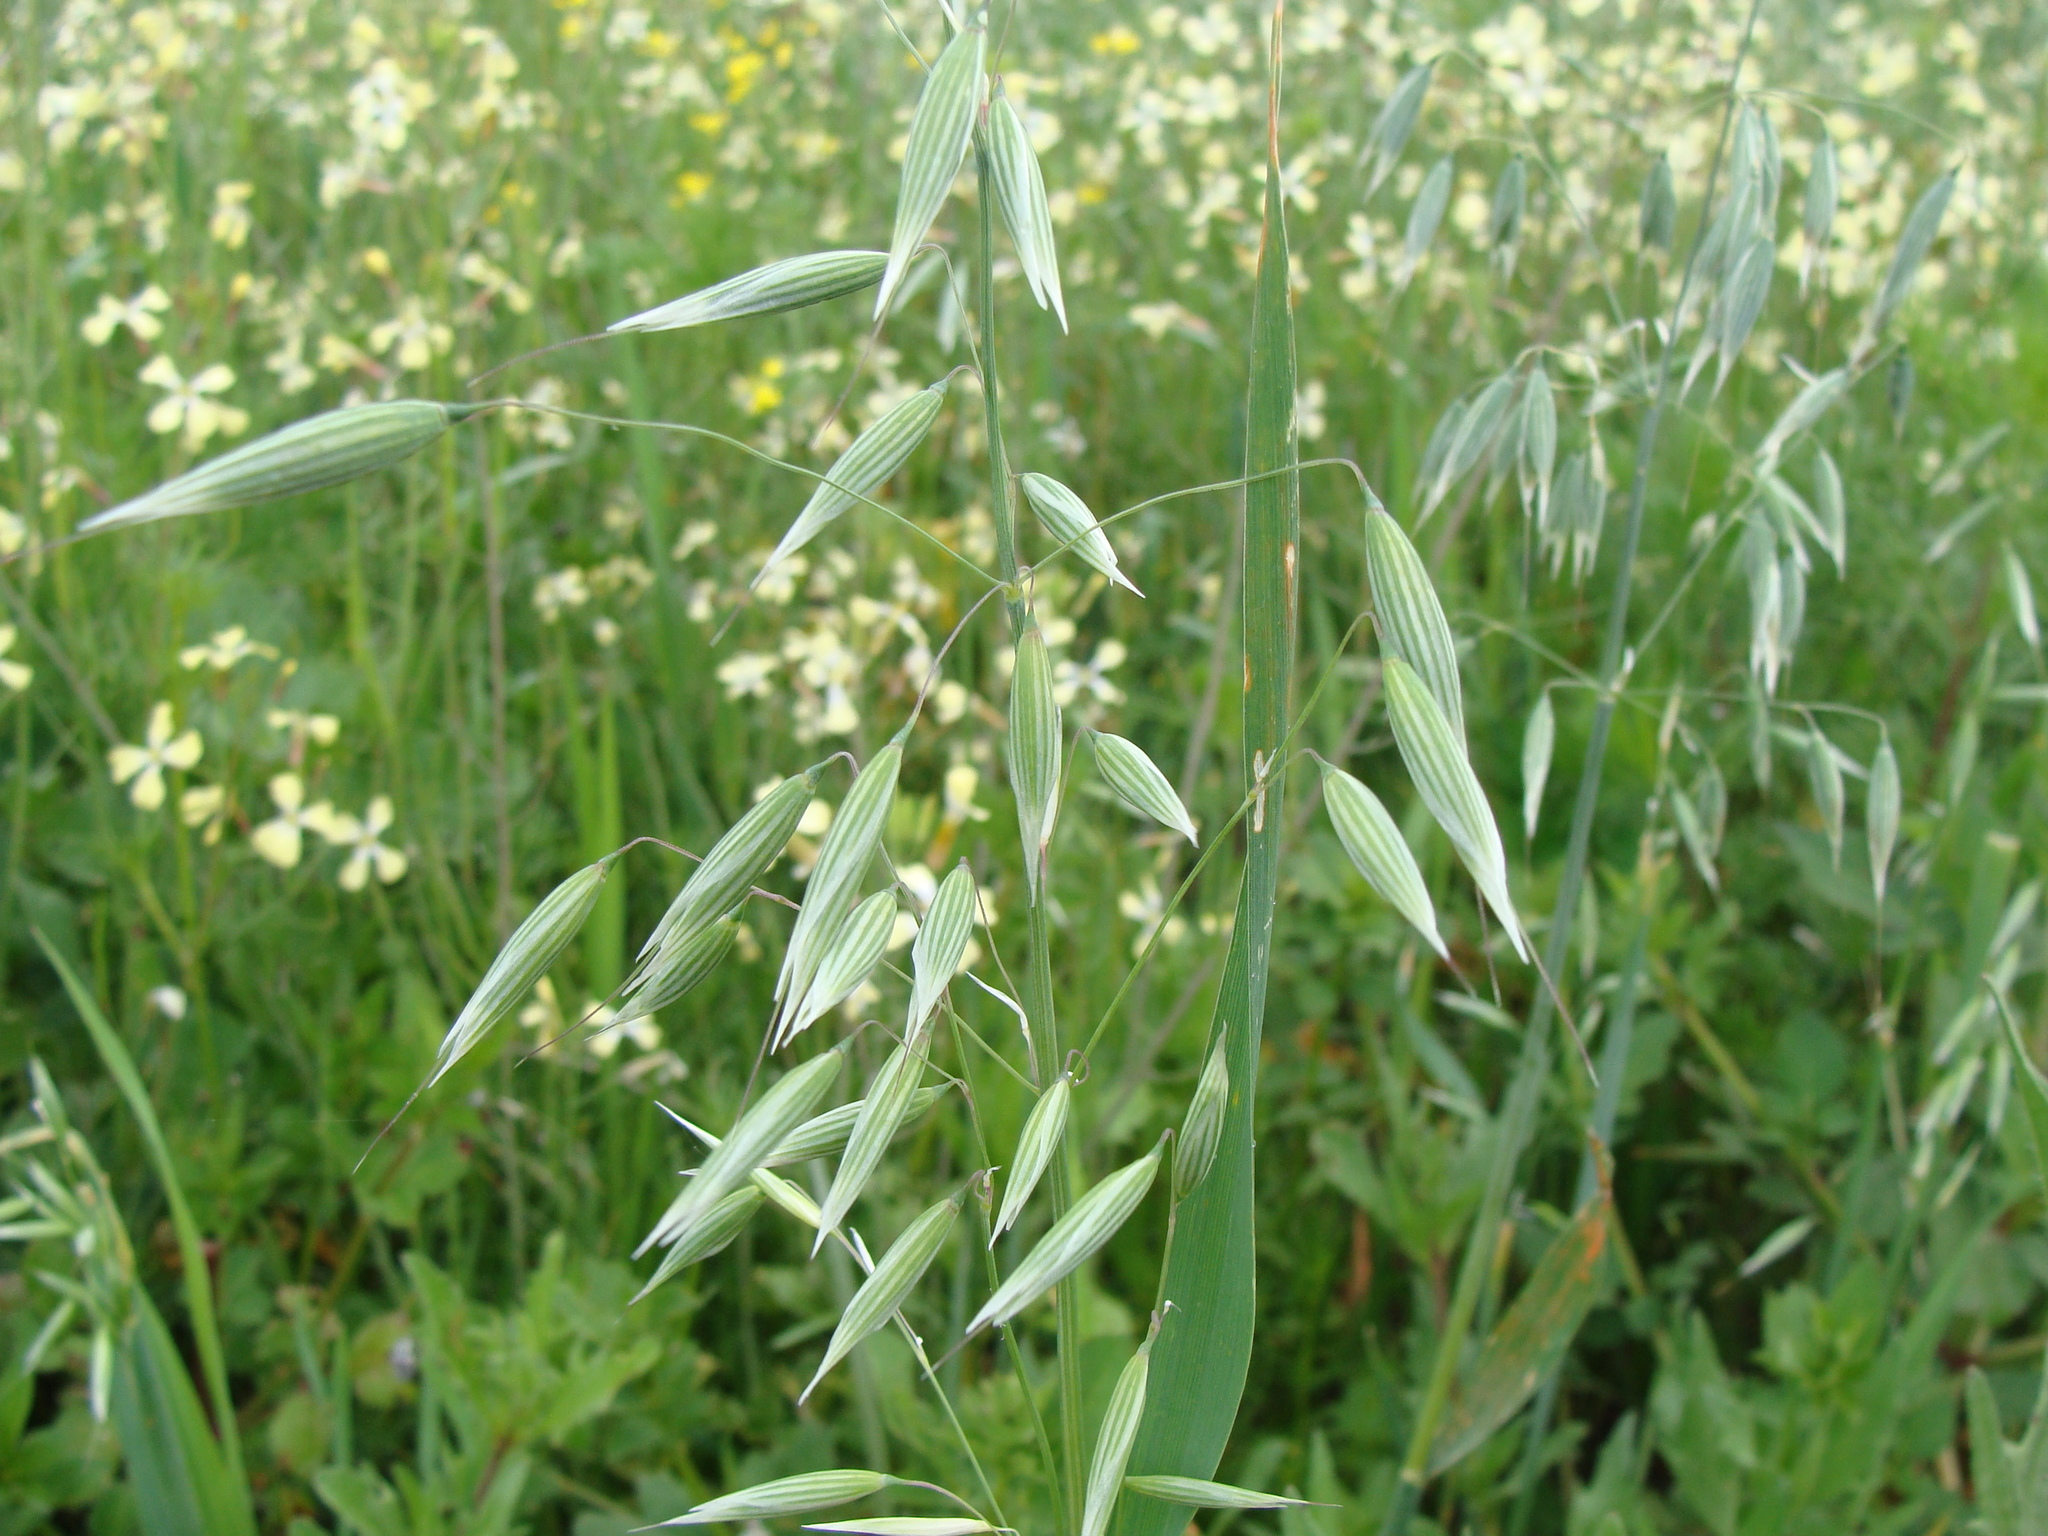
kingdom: Plantae
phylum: Tracheophyta
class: Liliopsida
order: Poales
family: Poaceae
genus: Avena
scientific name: Avena fatua
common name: Wild oat
